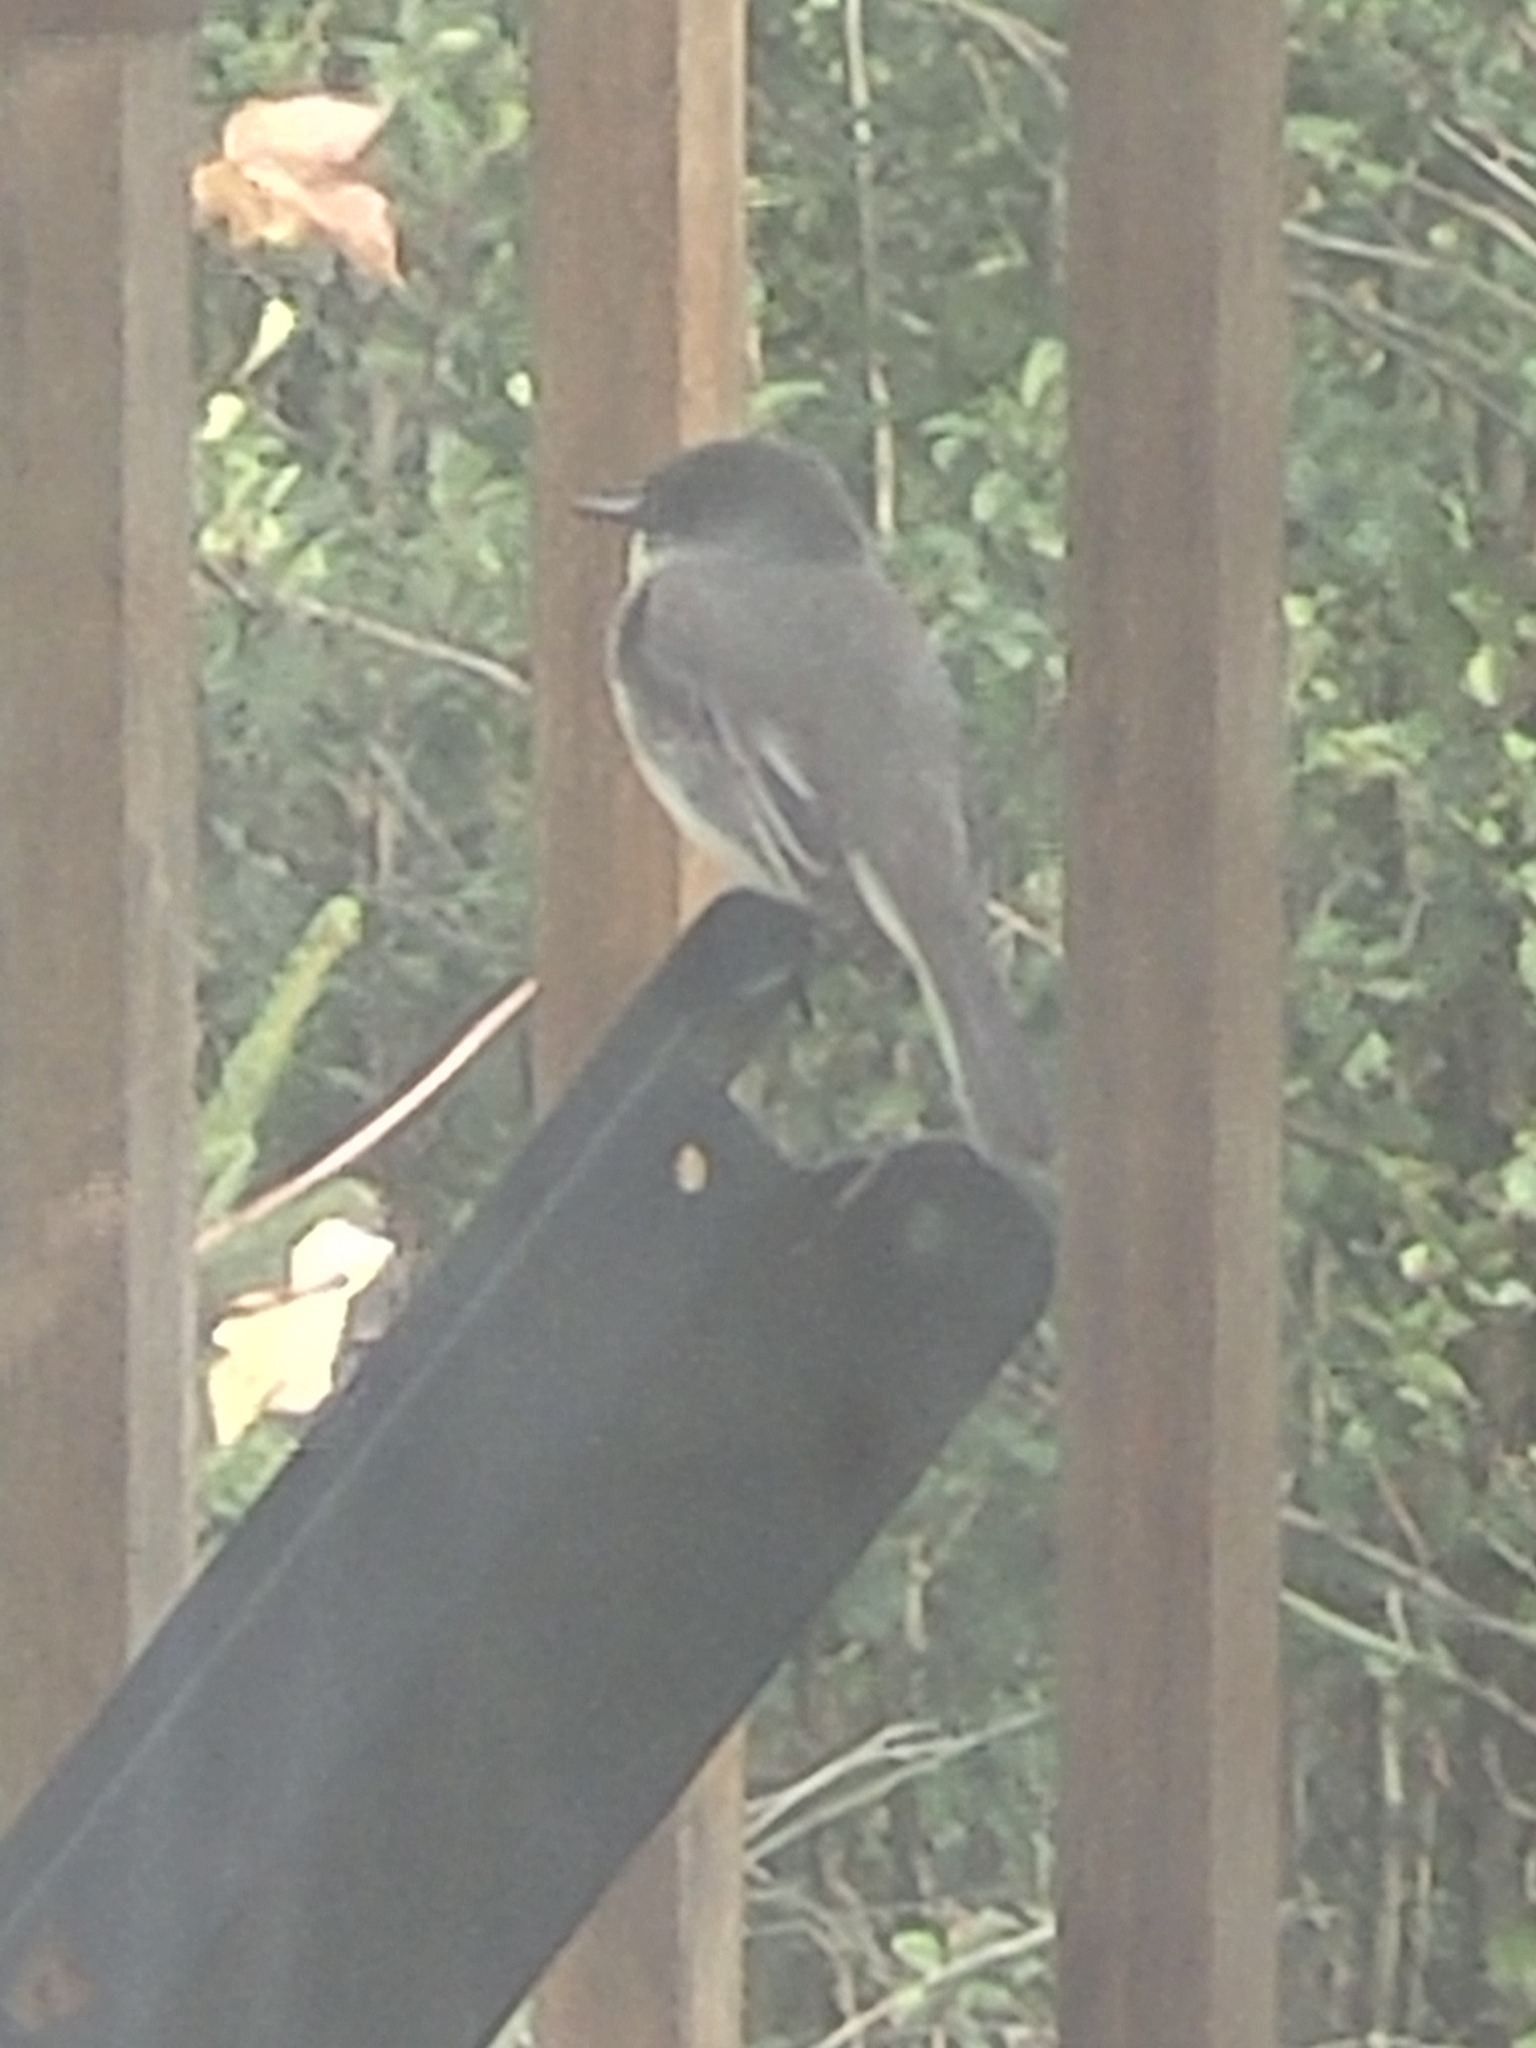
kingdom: Animalia
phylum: Chordata
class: Aves
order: Passeriformes
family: Tyrannidae
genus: Sayornis
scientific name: Sayornis phoebe
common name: Eastern phoebe
